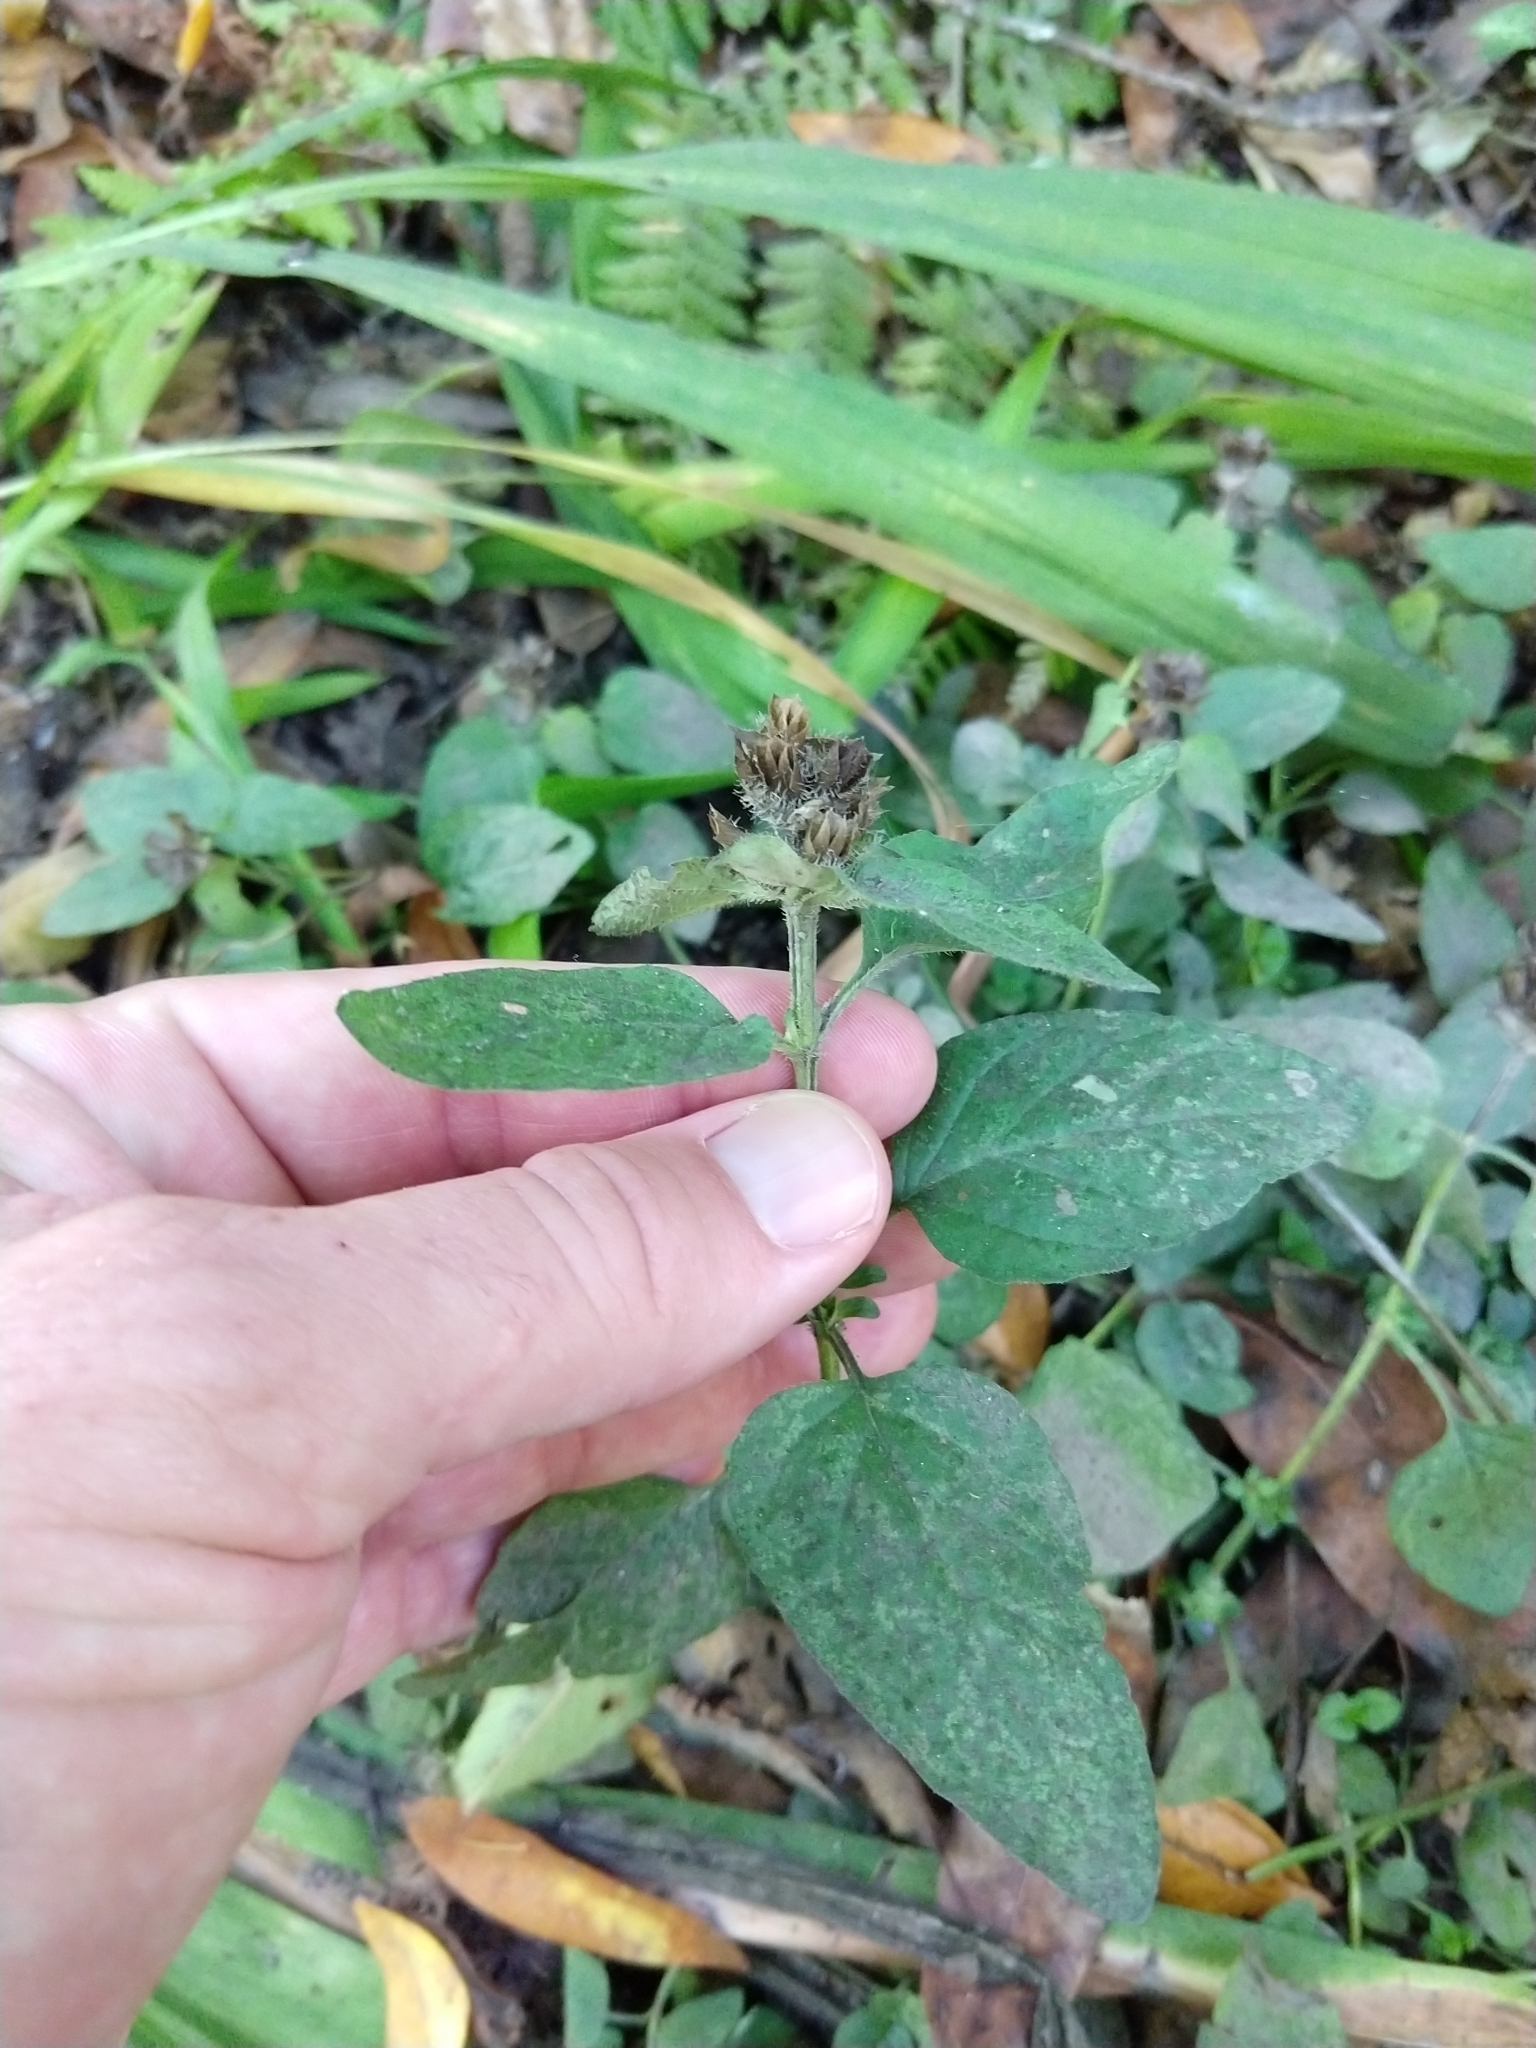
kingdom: Plantae
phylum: Tracheophyta
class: Magnoliopsida
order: Lamiales
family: Lamiaceae
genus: Prunella
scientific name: Prunella vulgaris
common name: Heal-all
